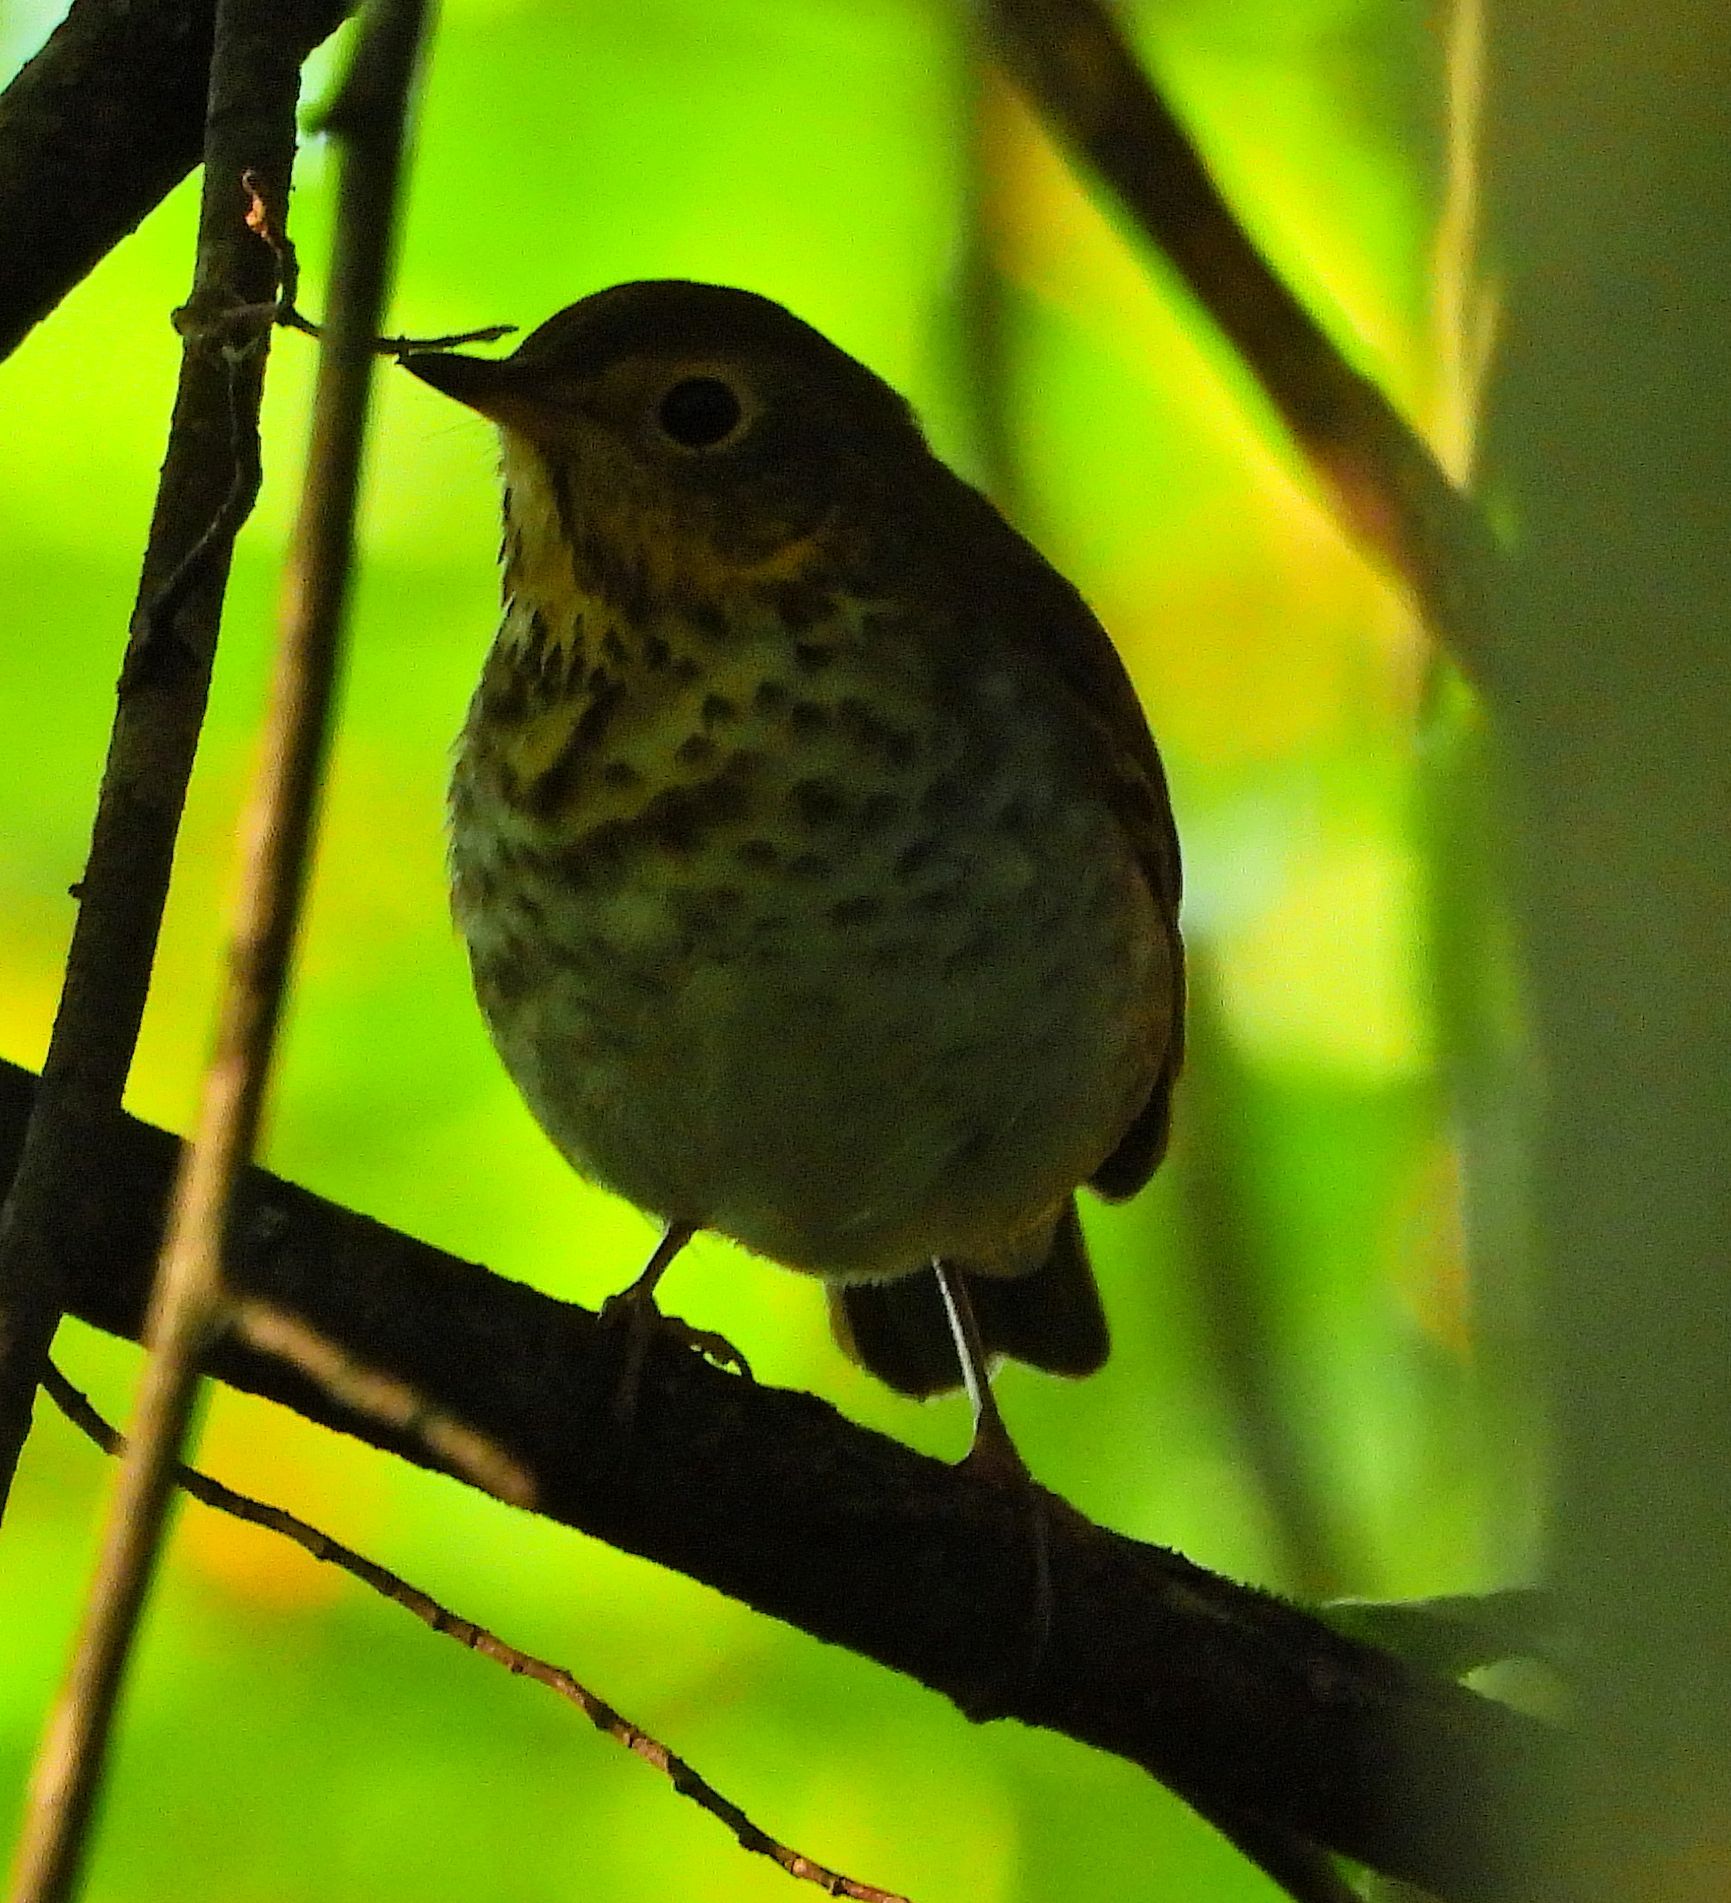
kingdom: Animalia
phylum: Chordata
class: Aves
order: Passeriformes
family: Turdidae
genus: Catharus
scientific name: Catharus ustulatus
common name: Swainson's thrush
